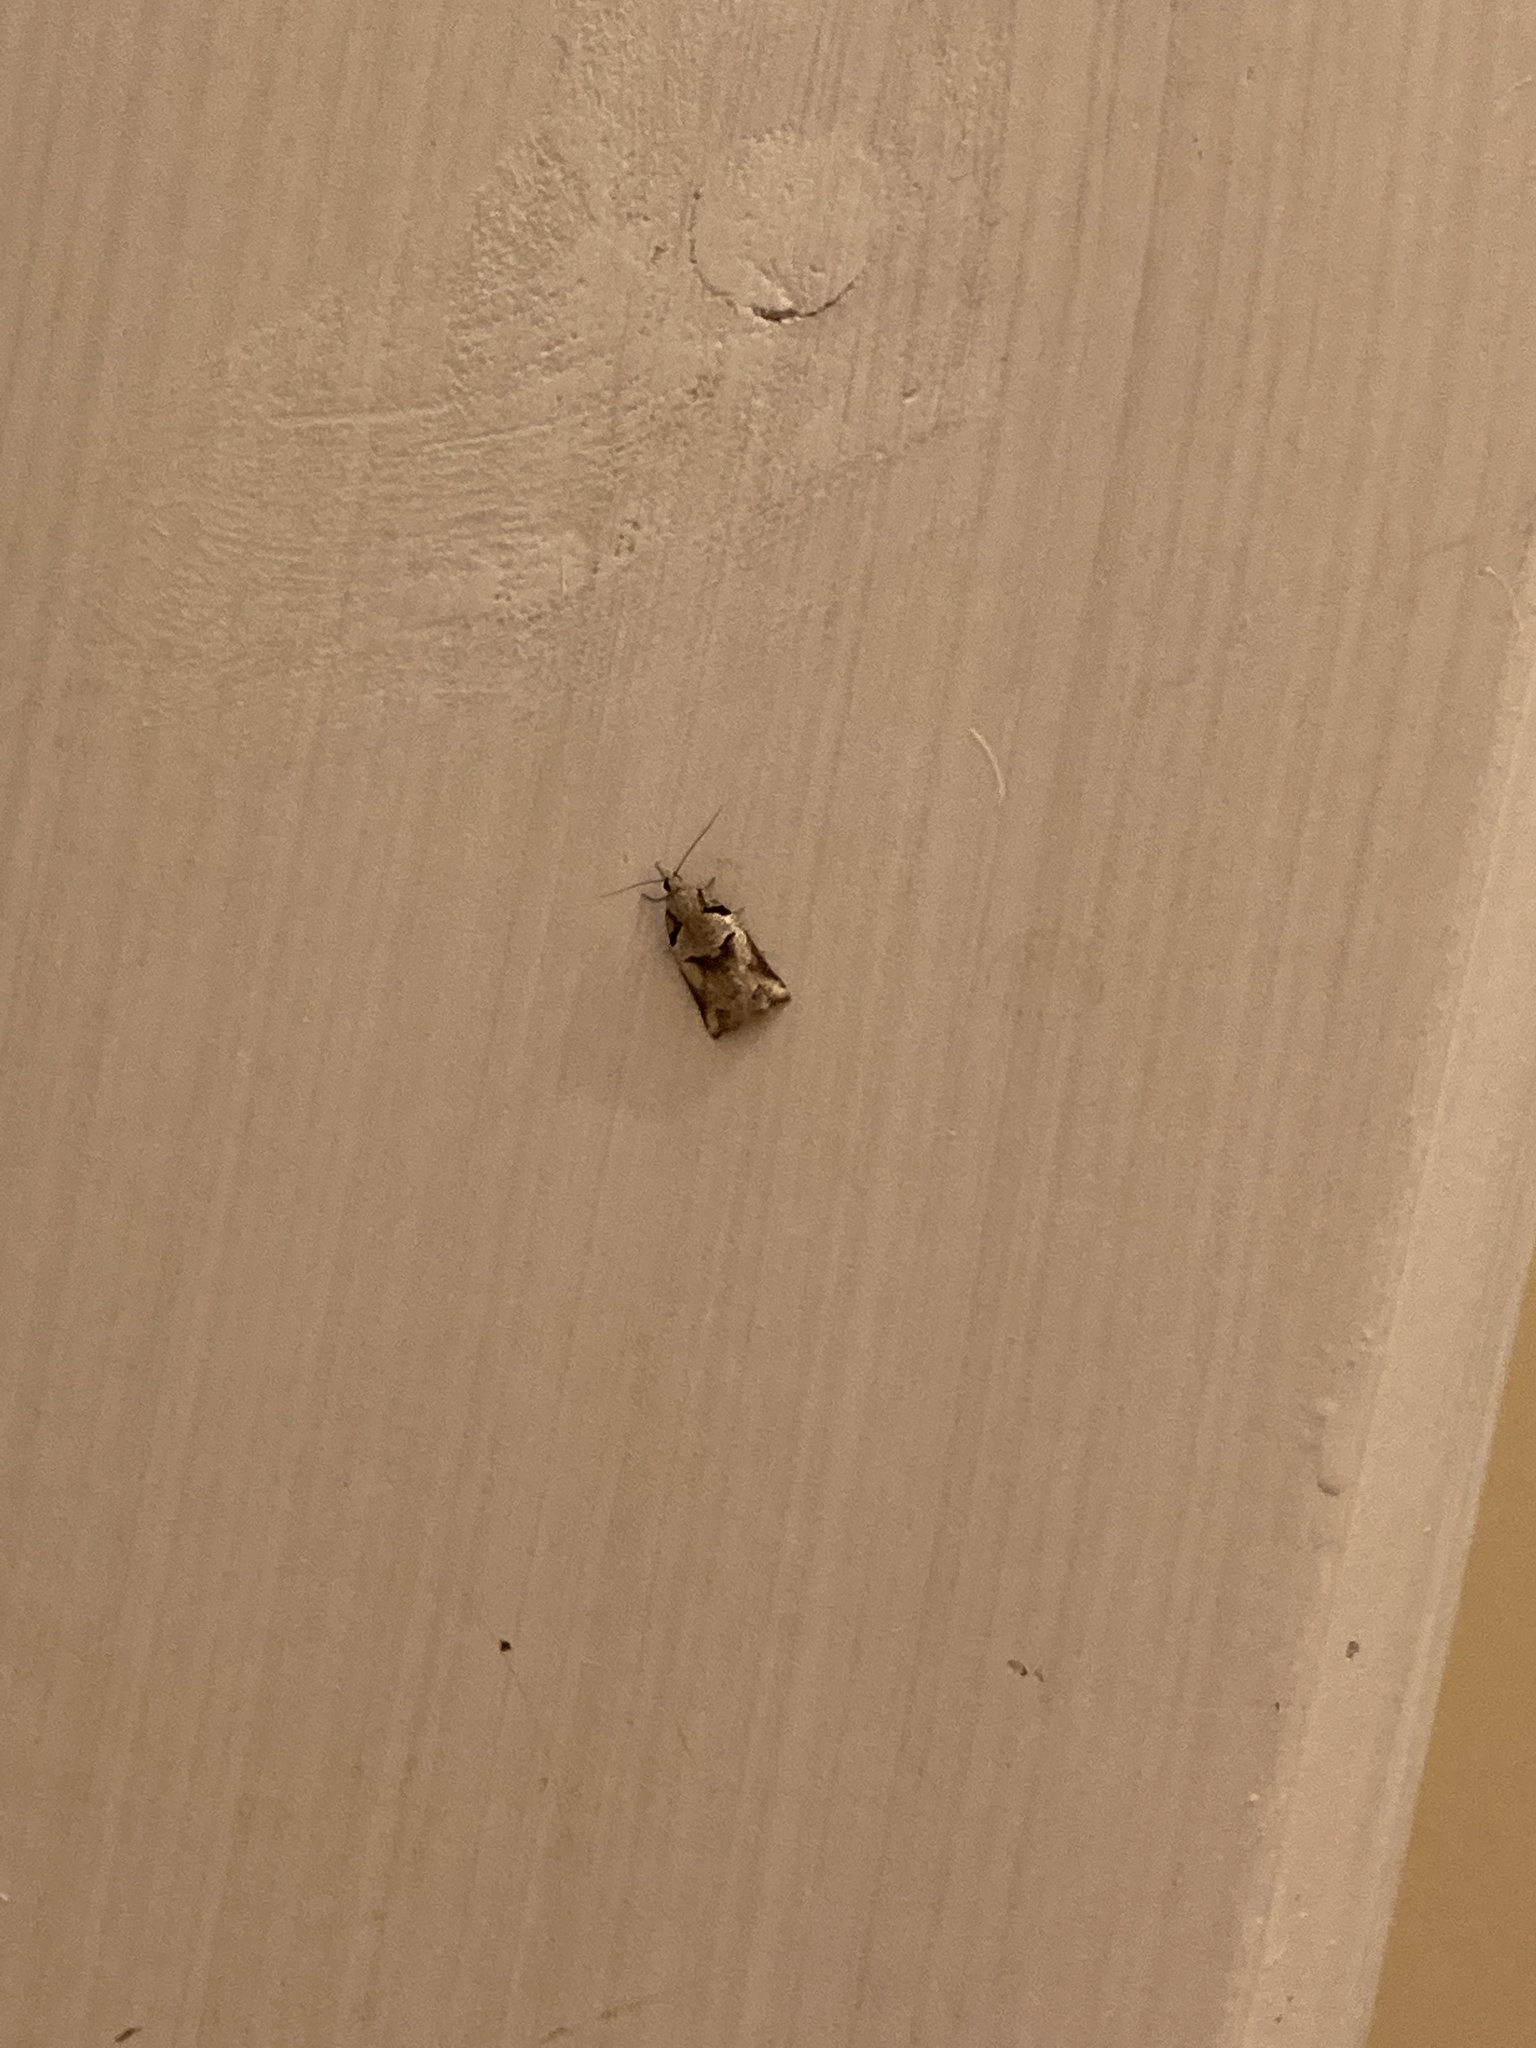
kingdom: Animalia
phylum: Arthropoda
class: Insecta
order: Lepidoptera
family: Tortricidae
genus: Harmologa
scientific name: Harmologa amplexana
